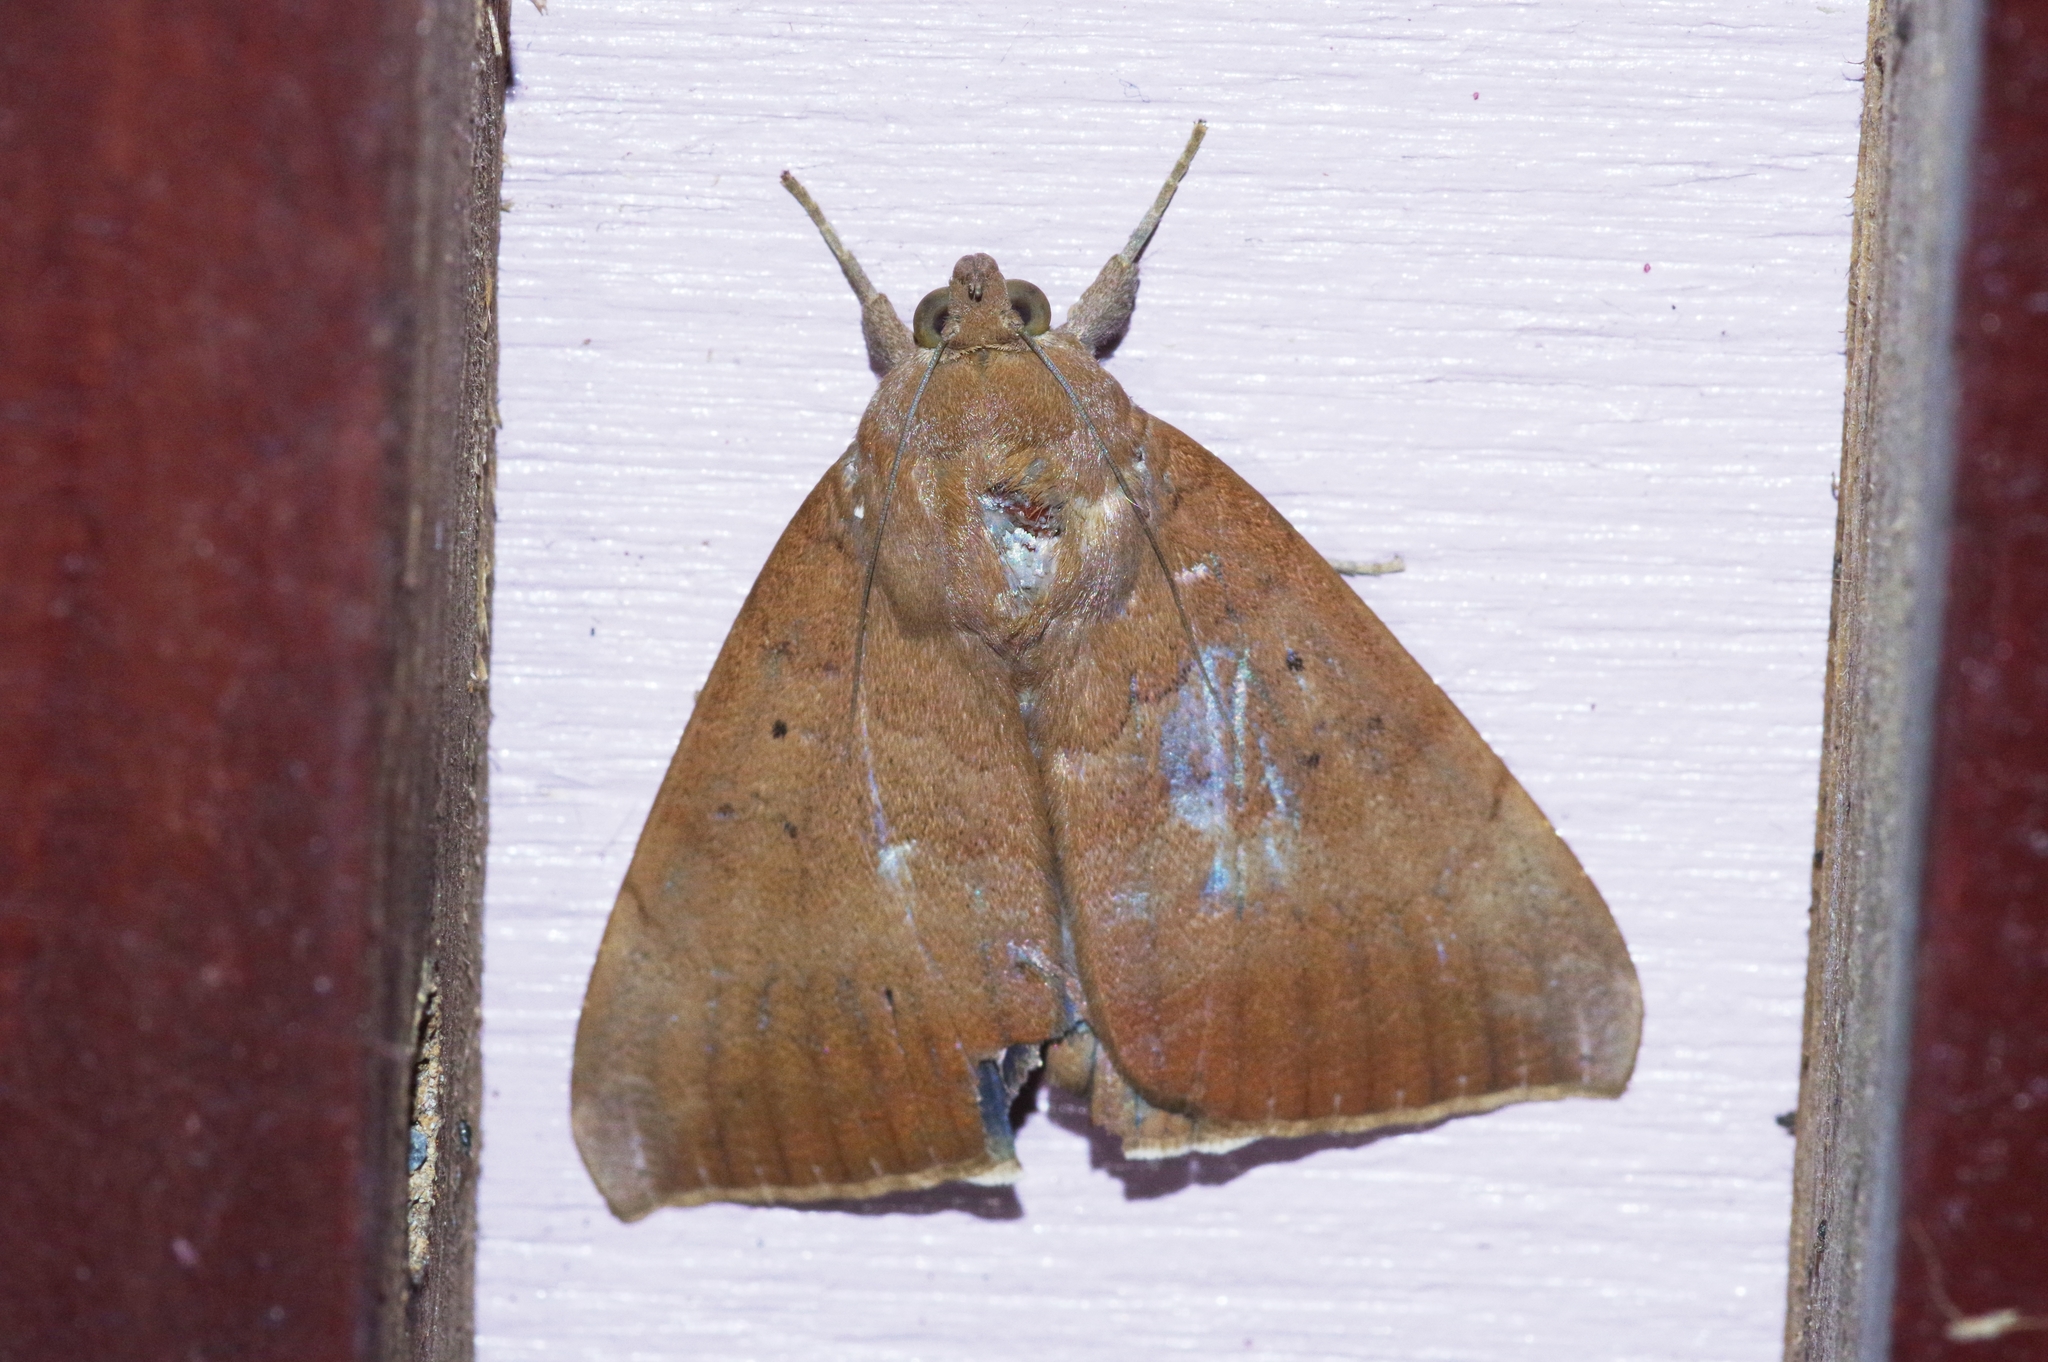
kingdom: Animalia
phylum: Arthropoda
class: Insecta
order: Lepidoptera
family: Erebidae
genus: Achaea
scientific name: Achaea serva
